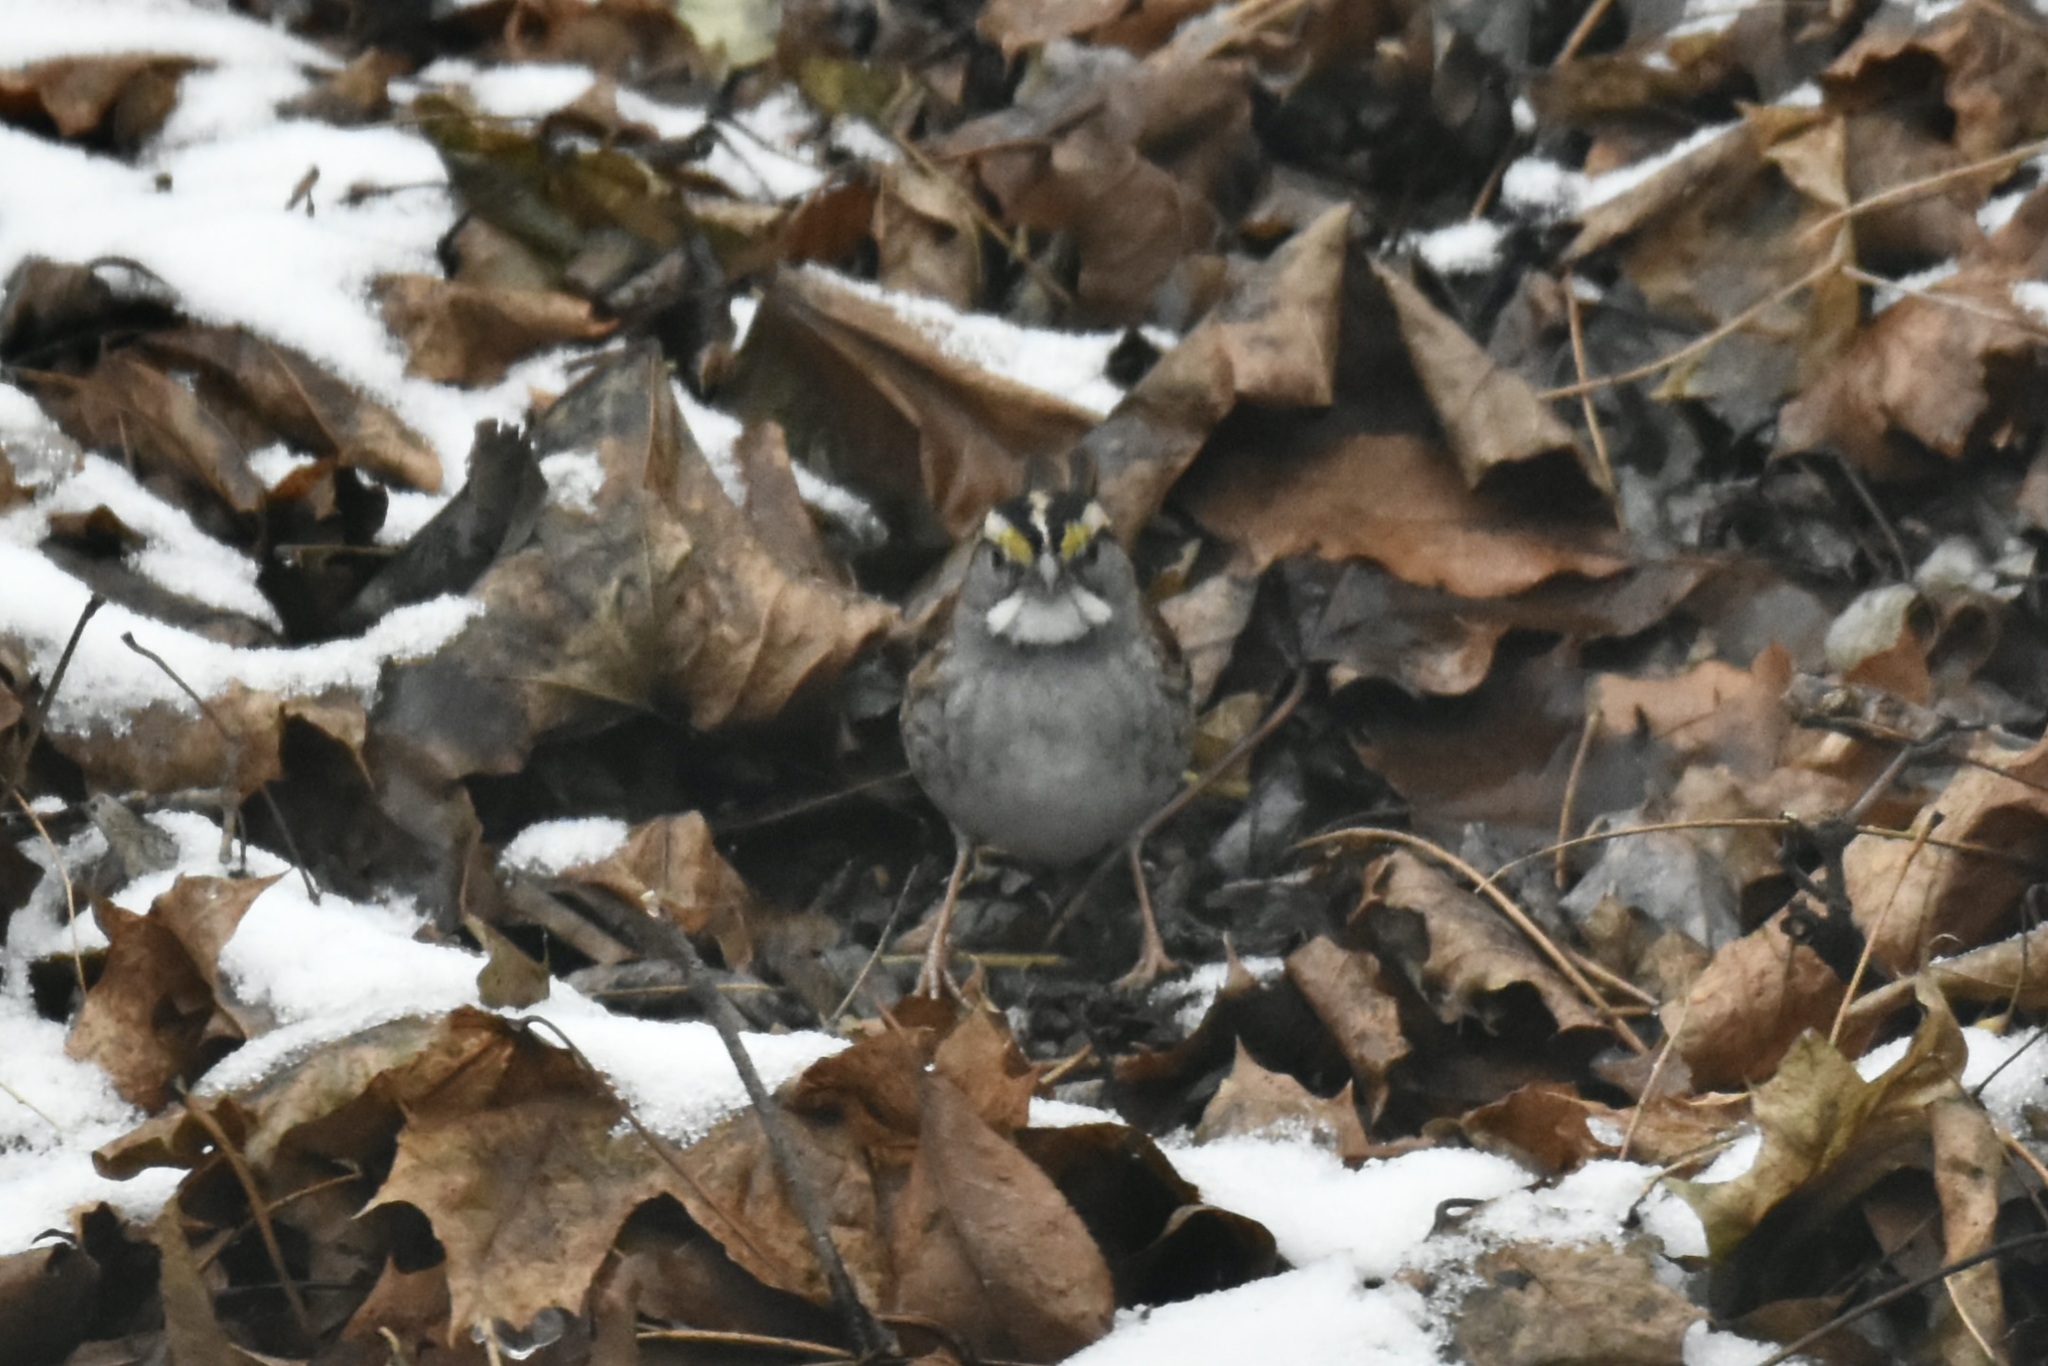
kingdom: Animalia
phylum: Chordata
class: Aves
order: Passeriformes
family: Passerellidae
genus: Zonotrichia
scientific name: Zonotrichia albicollis
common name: White-throated sparrow
